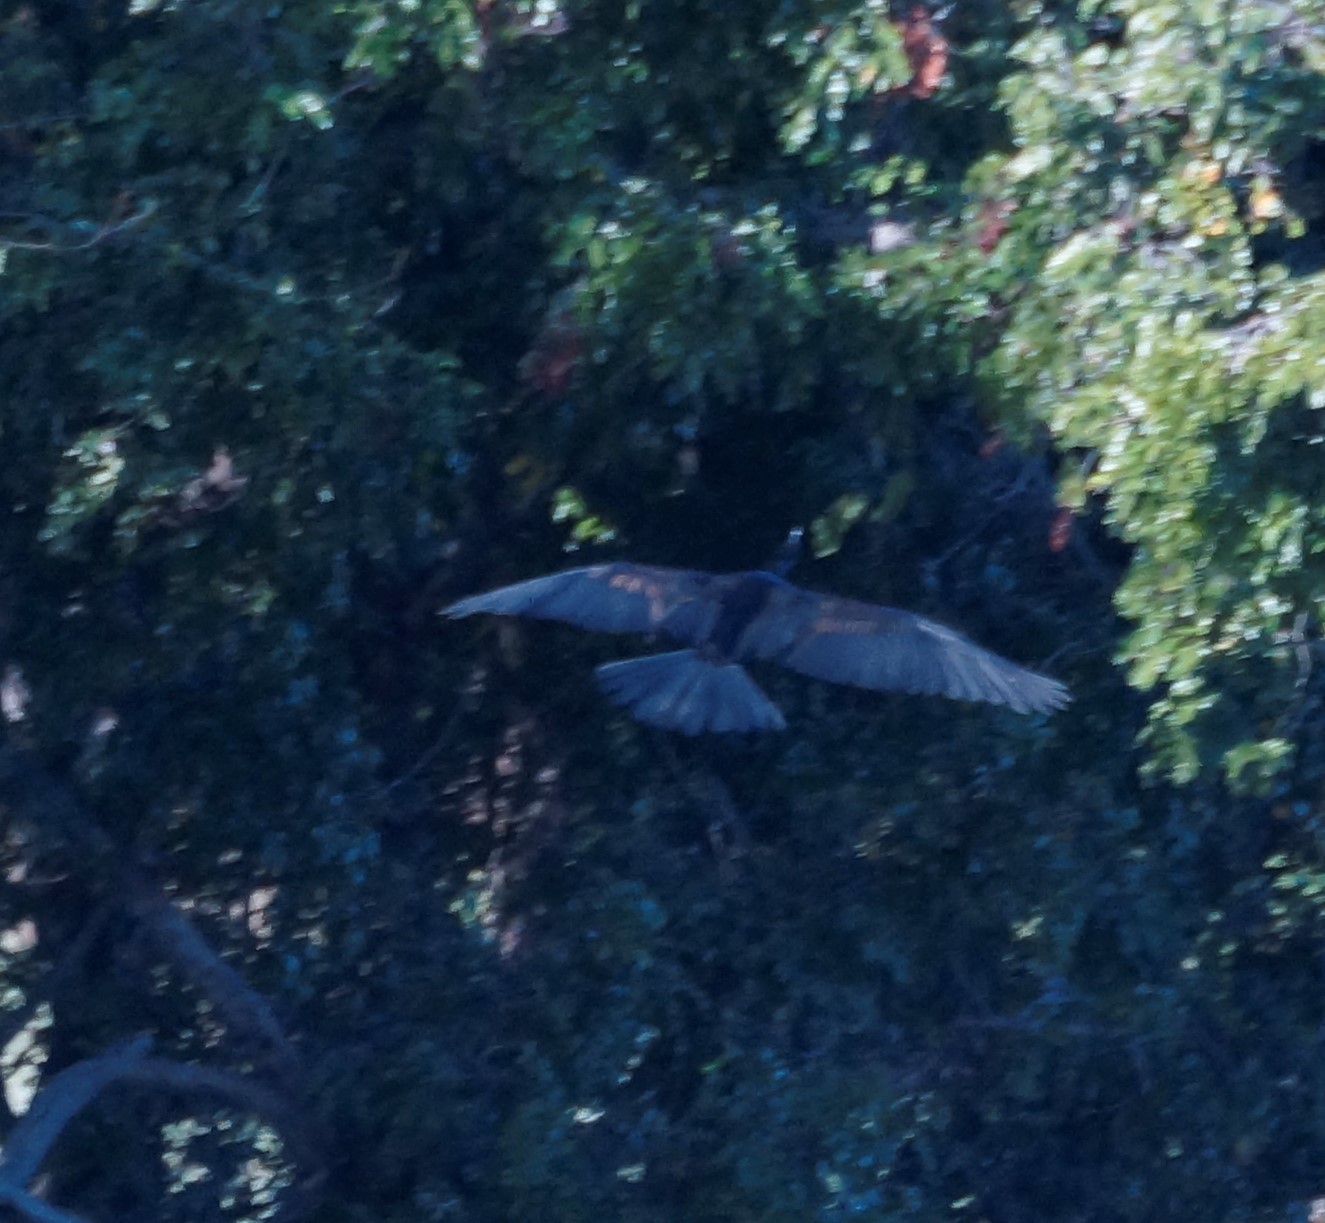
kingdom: Animalia
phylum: Chordata
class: Aves
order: Suliformes
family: Anhingidae
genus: Anhinga
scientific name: Anhinga novaehollandiae
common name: Australasian darter
